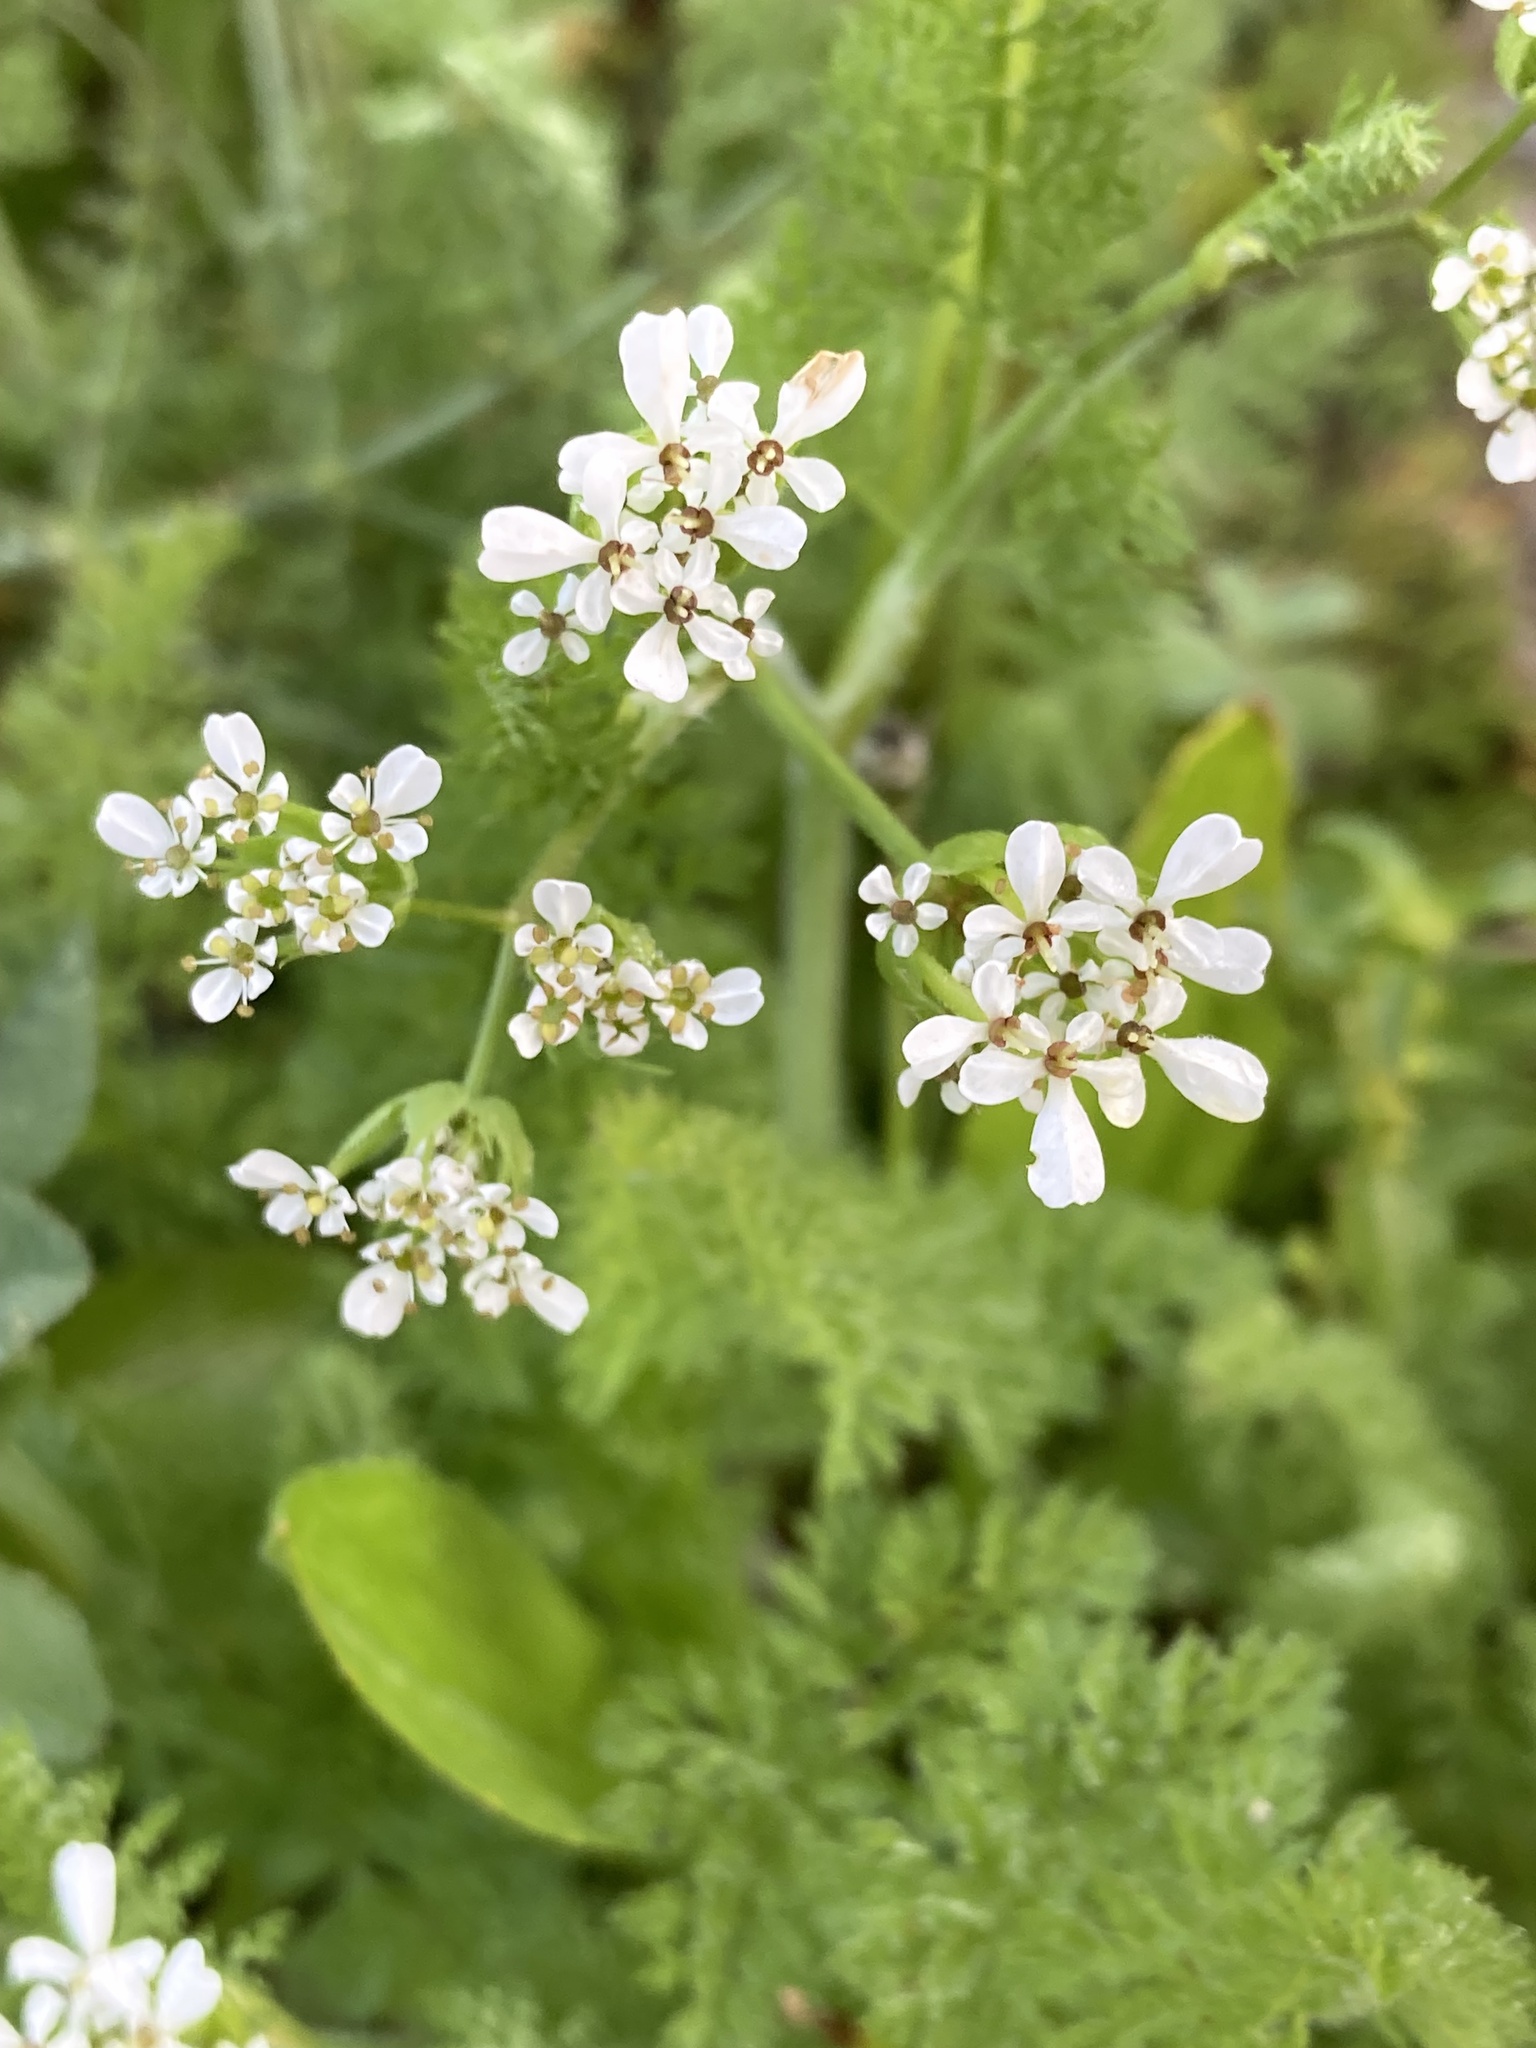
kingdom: Plantae
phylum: Tracheophyta
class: Magnoliopsida
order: Apiales
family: Apiaceae
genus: Scandix
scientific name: Scandix pecten-veneris
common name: Shepherd's-needle
